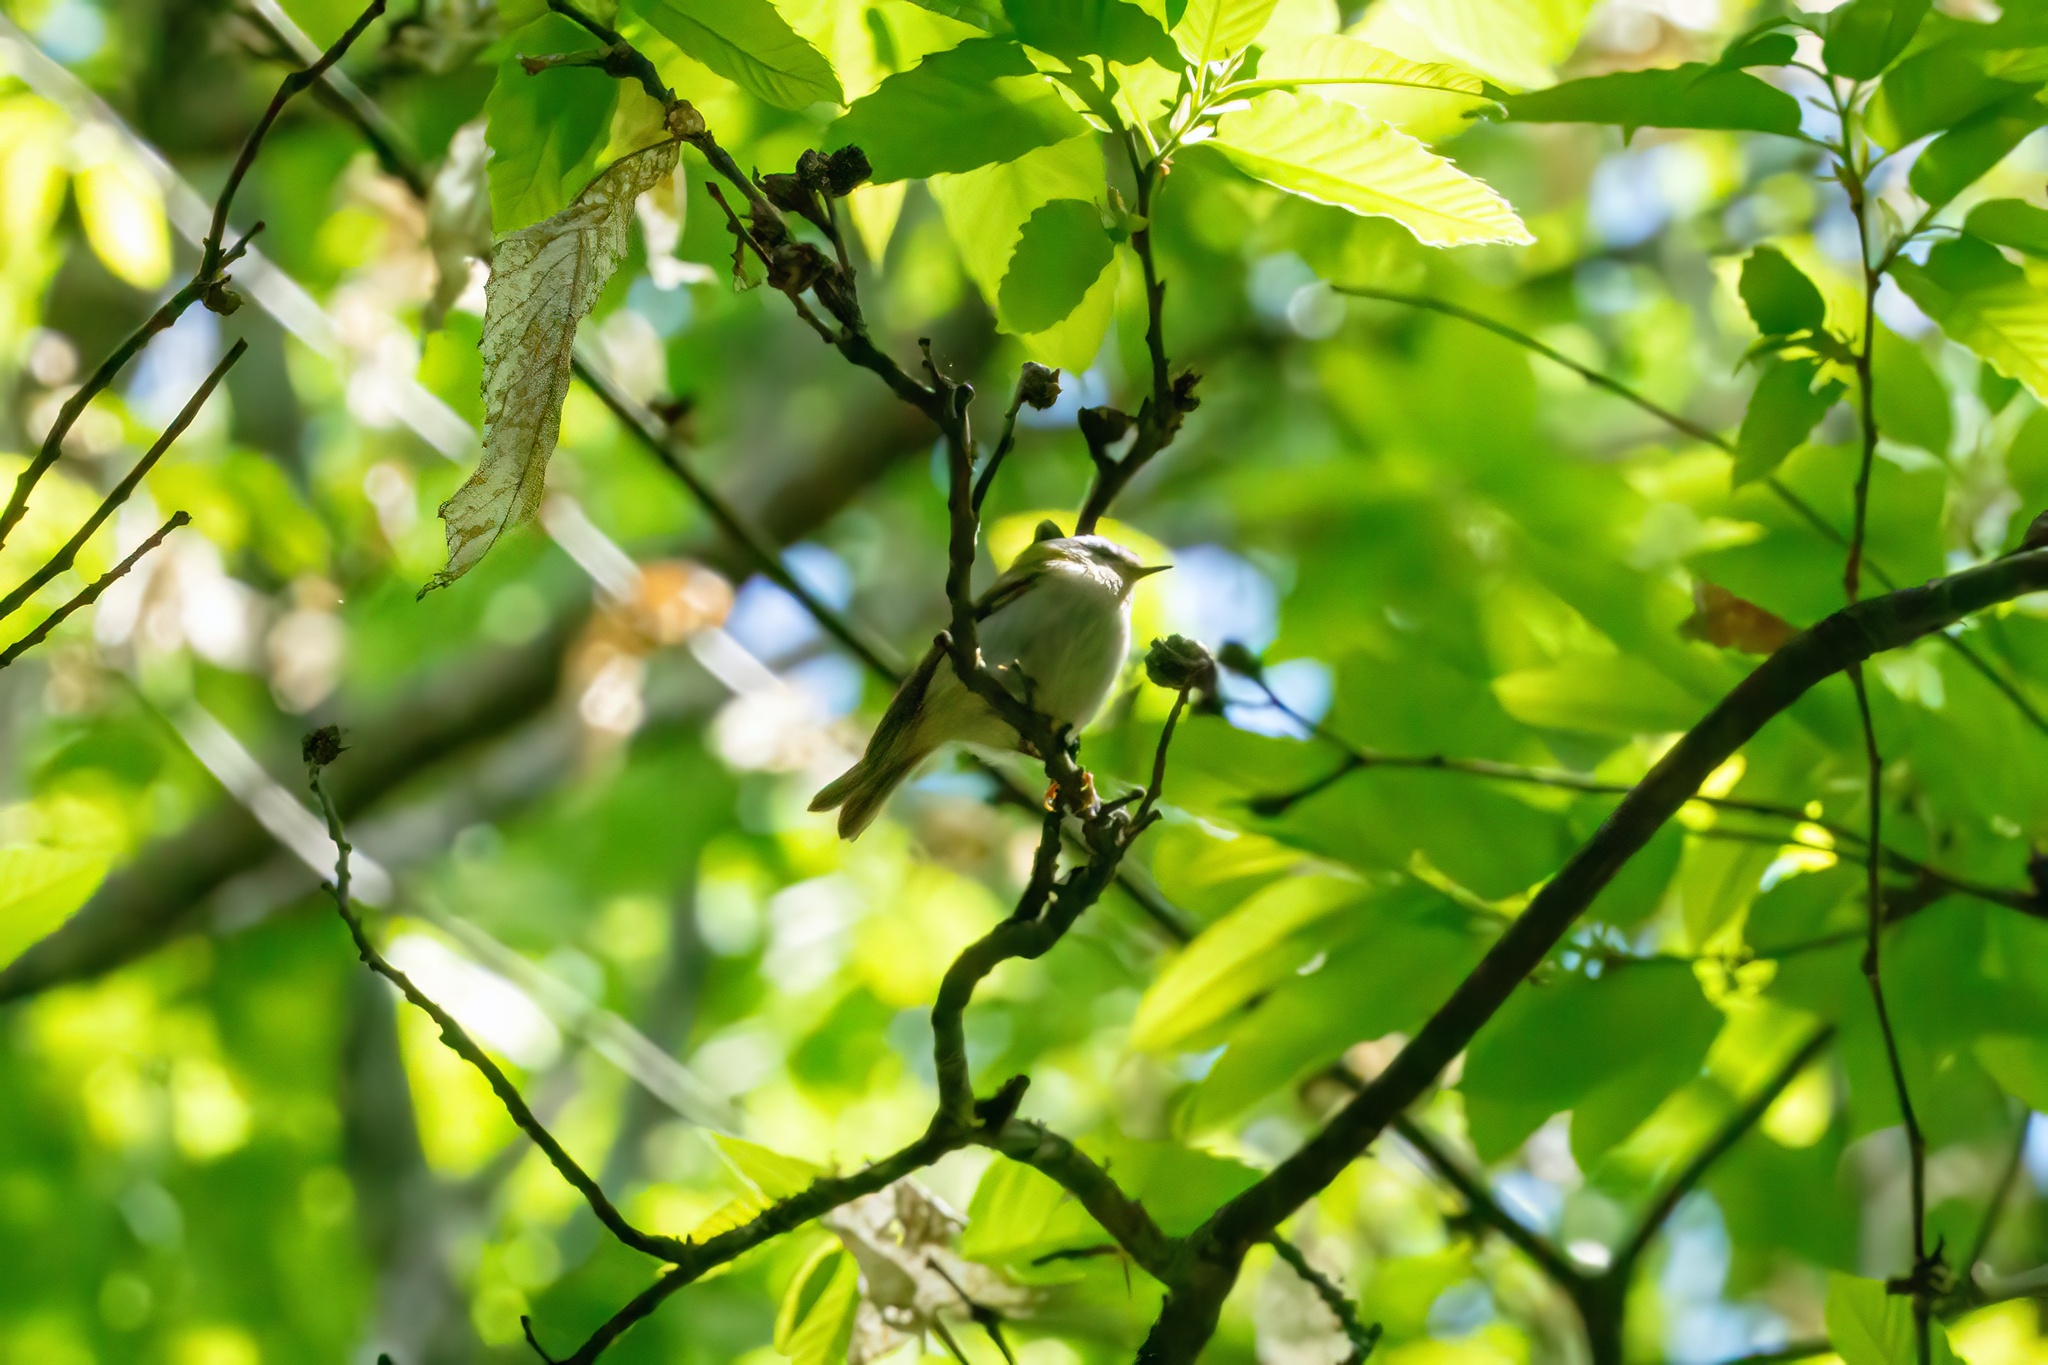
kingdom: Animalia
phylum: Chordata
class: Aves
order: Passeriformes
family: Regulidae
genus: Regulus
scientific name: Regulus ignicapilla
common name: Firecrest
